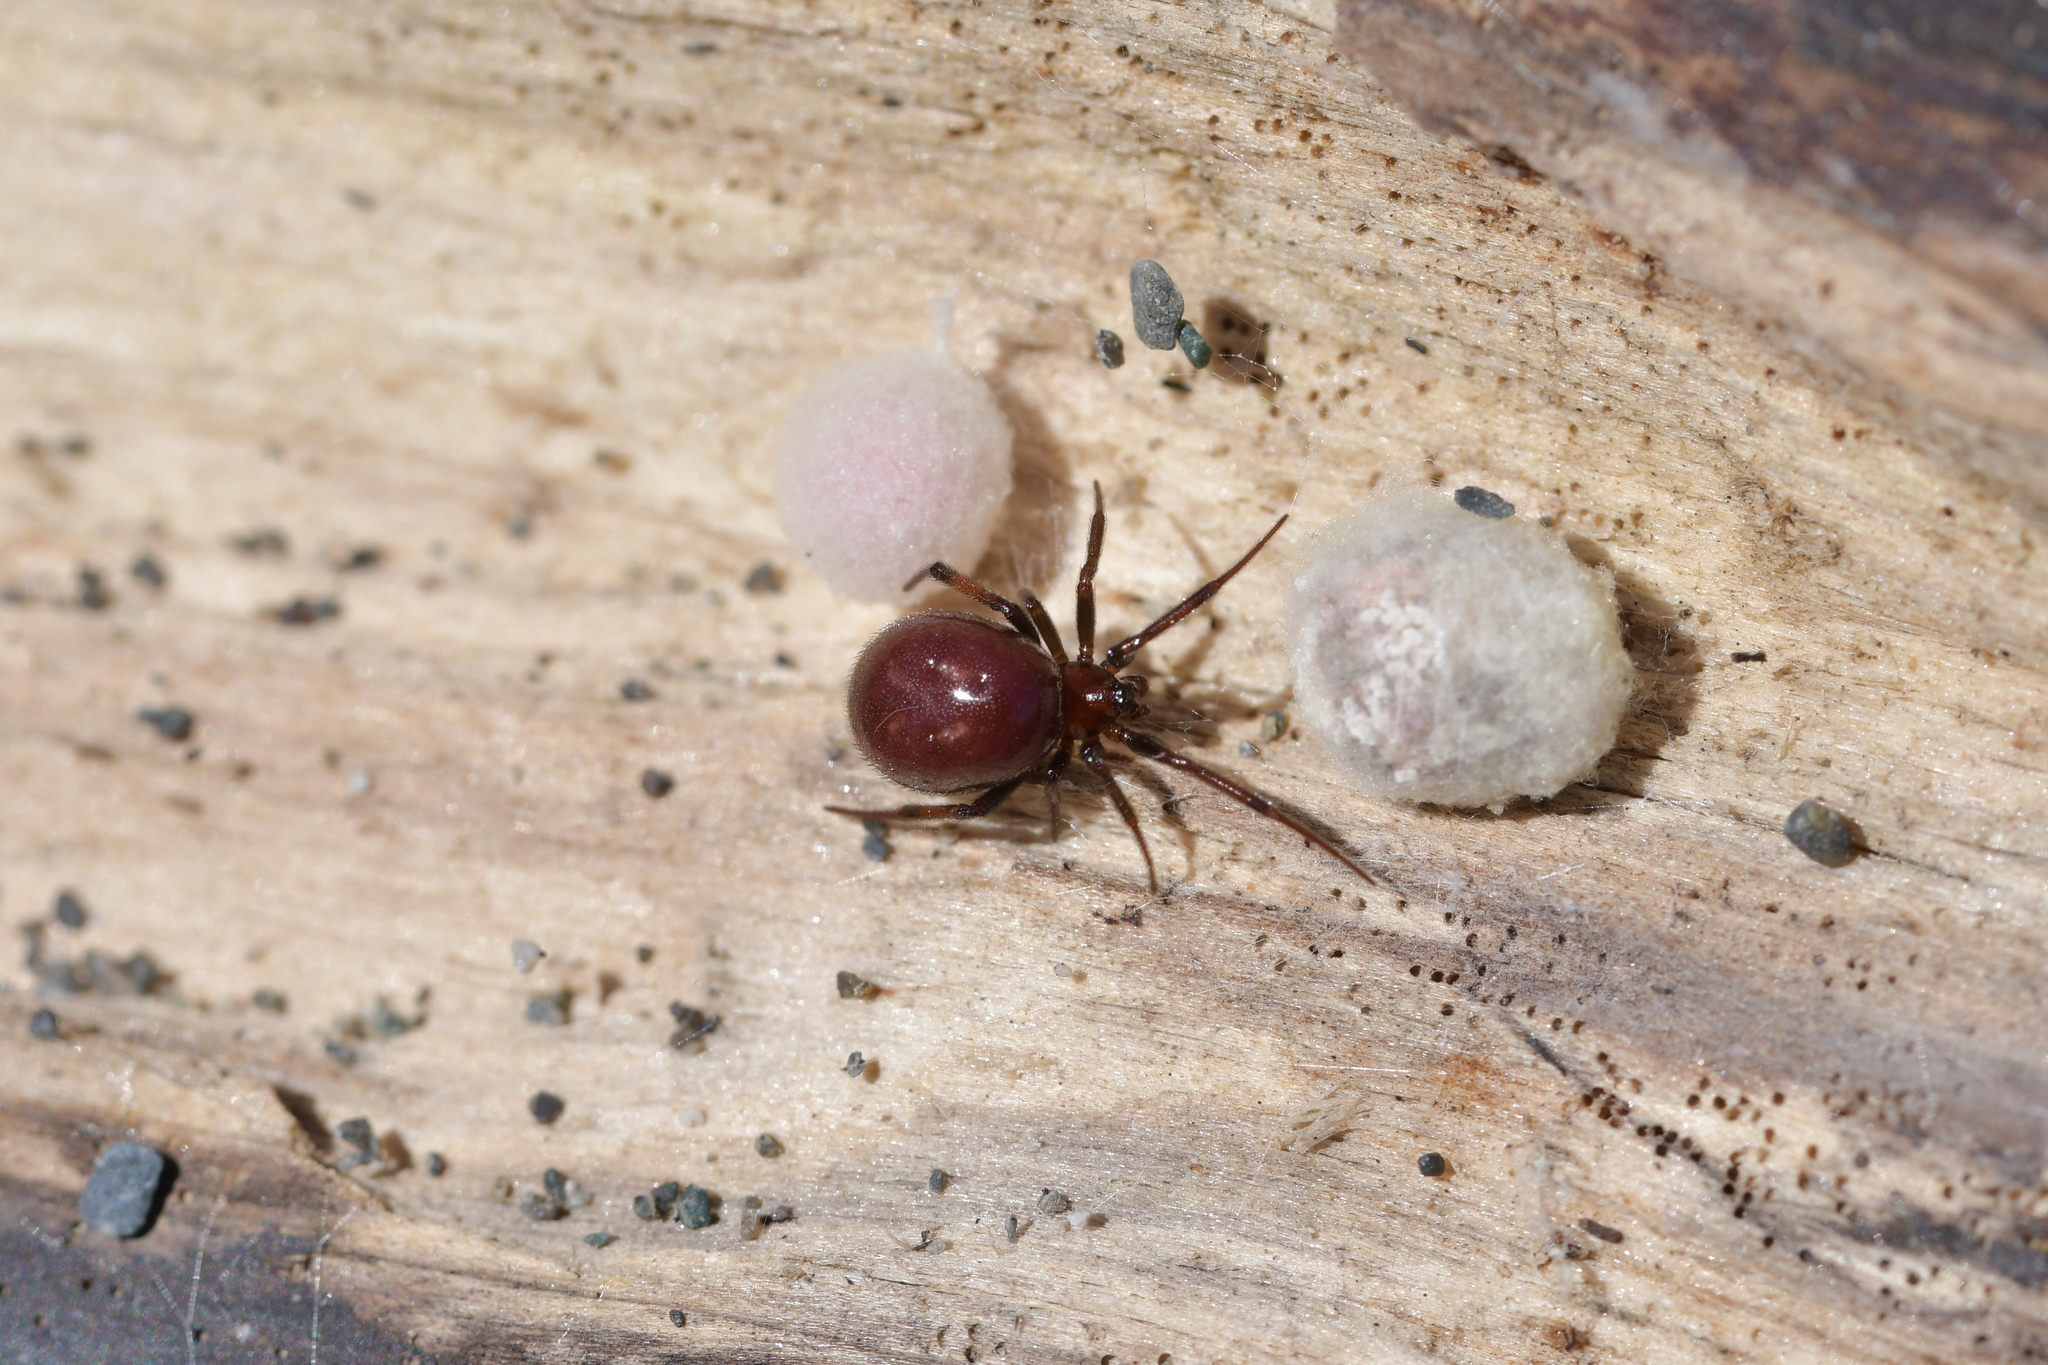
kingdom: Animalia
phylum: Arthropoda
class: Arachnida
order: Araneae
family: Theridiidae
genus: Steatoda
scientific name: Steatoda capensis
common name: Cobweb weaver
